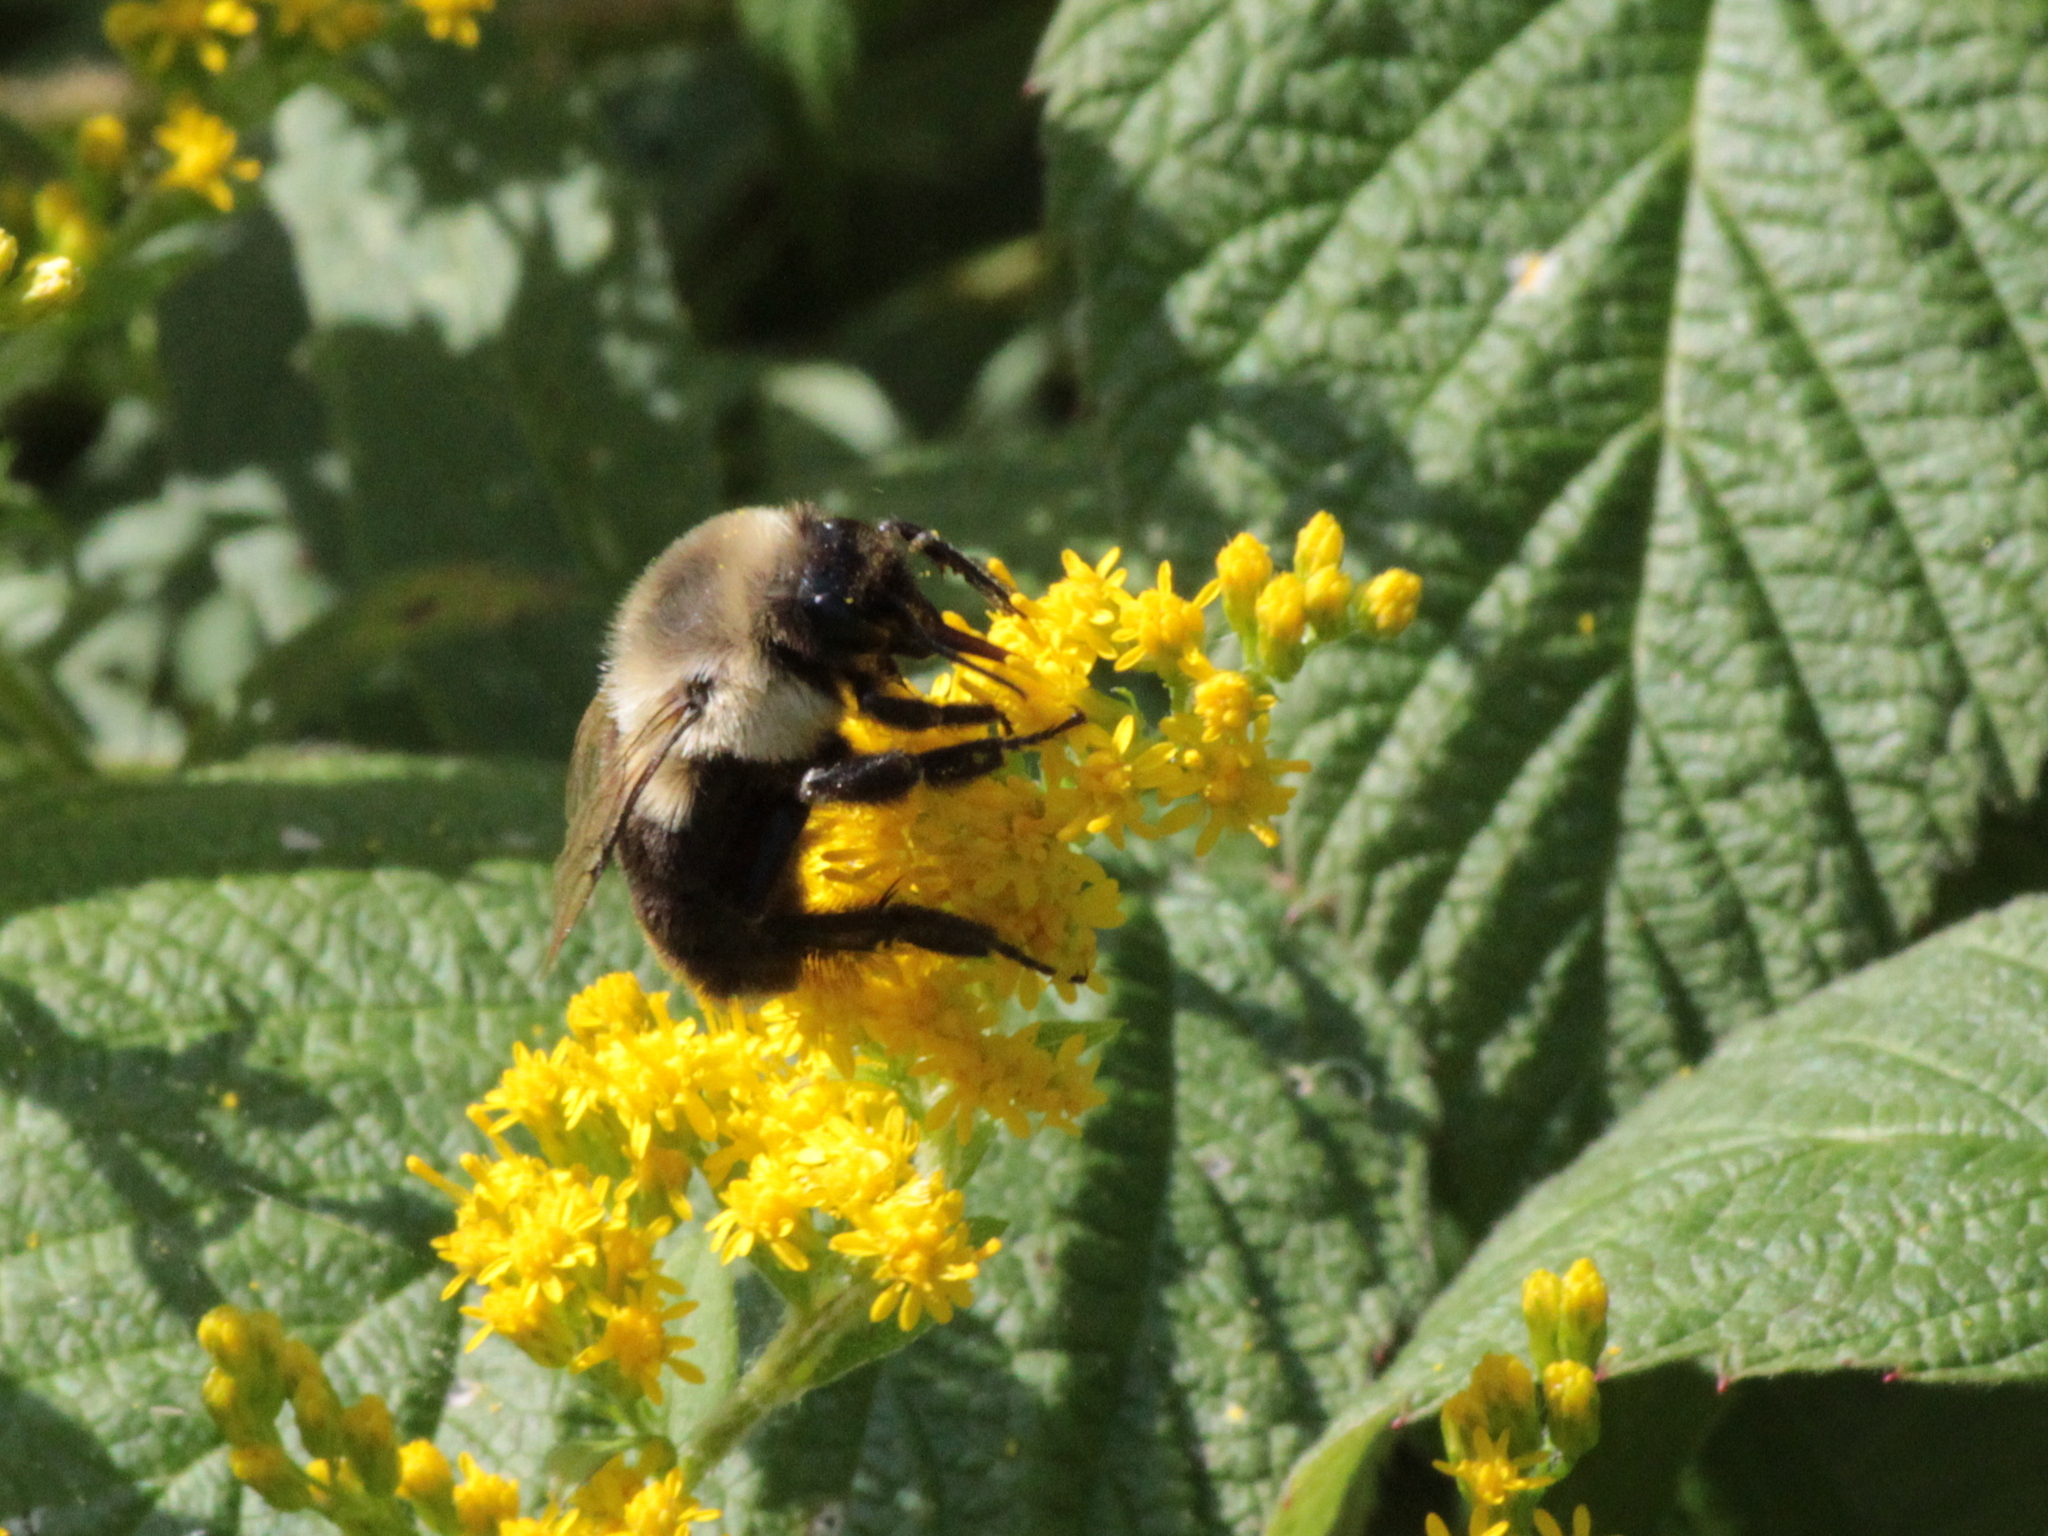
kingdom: Animalia
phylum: Arthropoda
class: Insecta
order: Hymenoptera
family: Apidae
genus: Bombus
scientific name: Bombus impatiens
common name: Common eastern bumble bee
